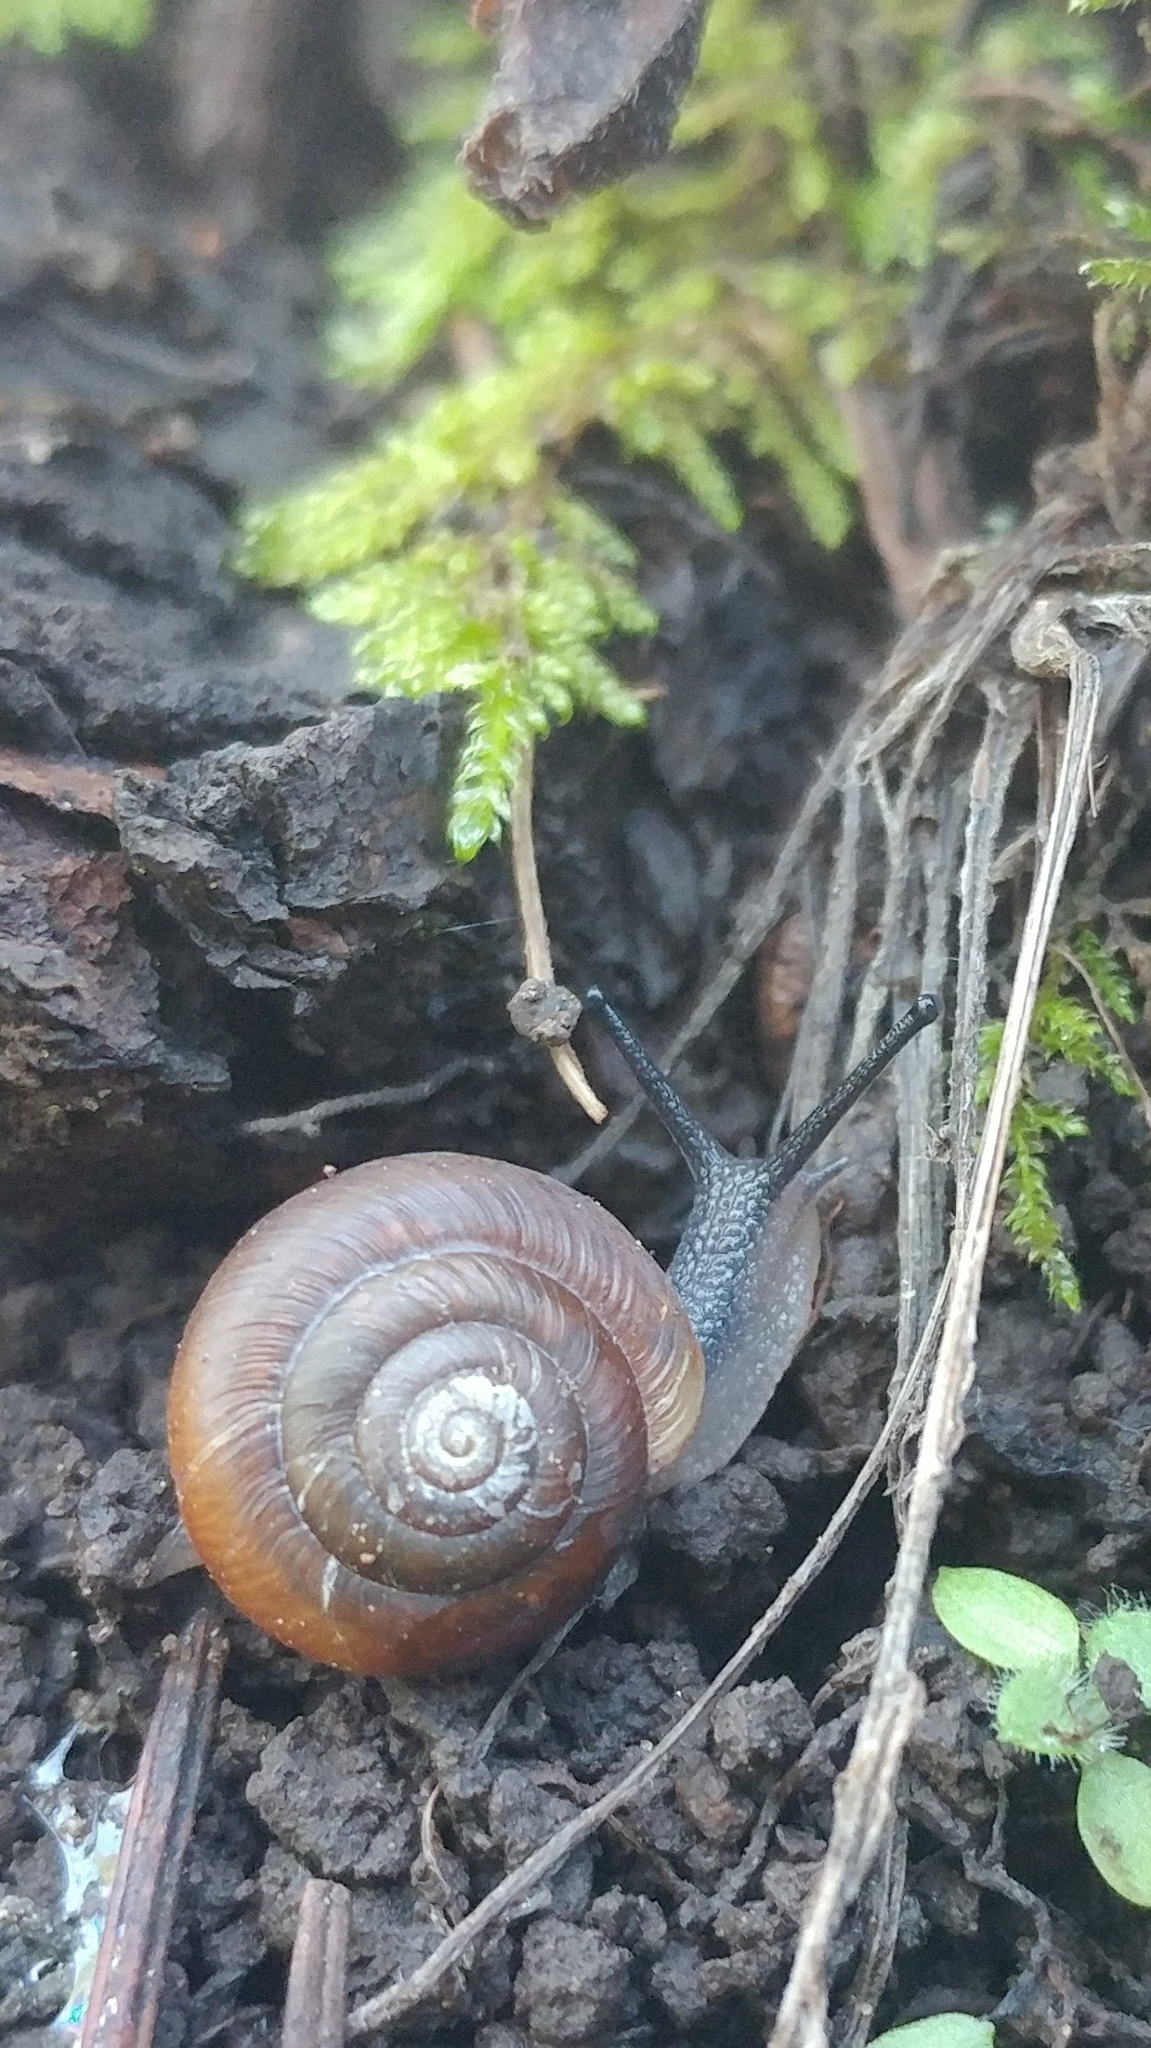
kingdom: Animalia
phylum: Mollusca
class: Gastropoda
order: Stylommatophora
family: Polygyridae
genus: Ashmunella
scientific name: Ashmunella rhyssa
